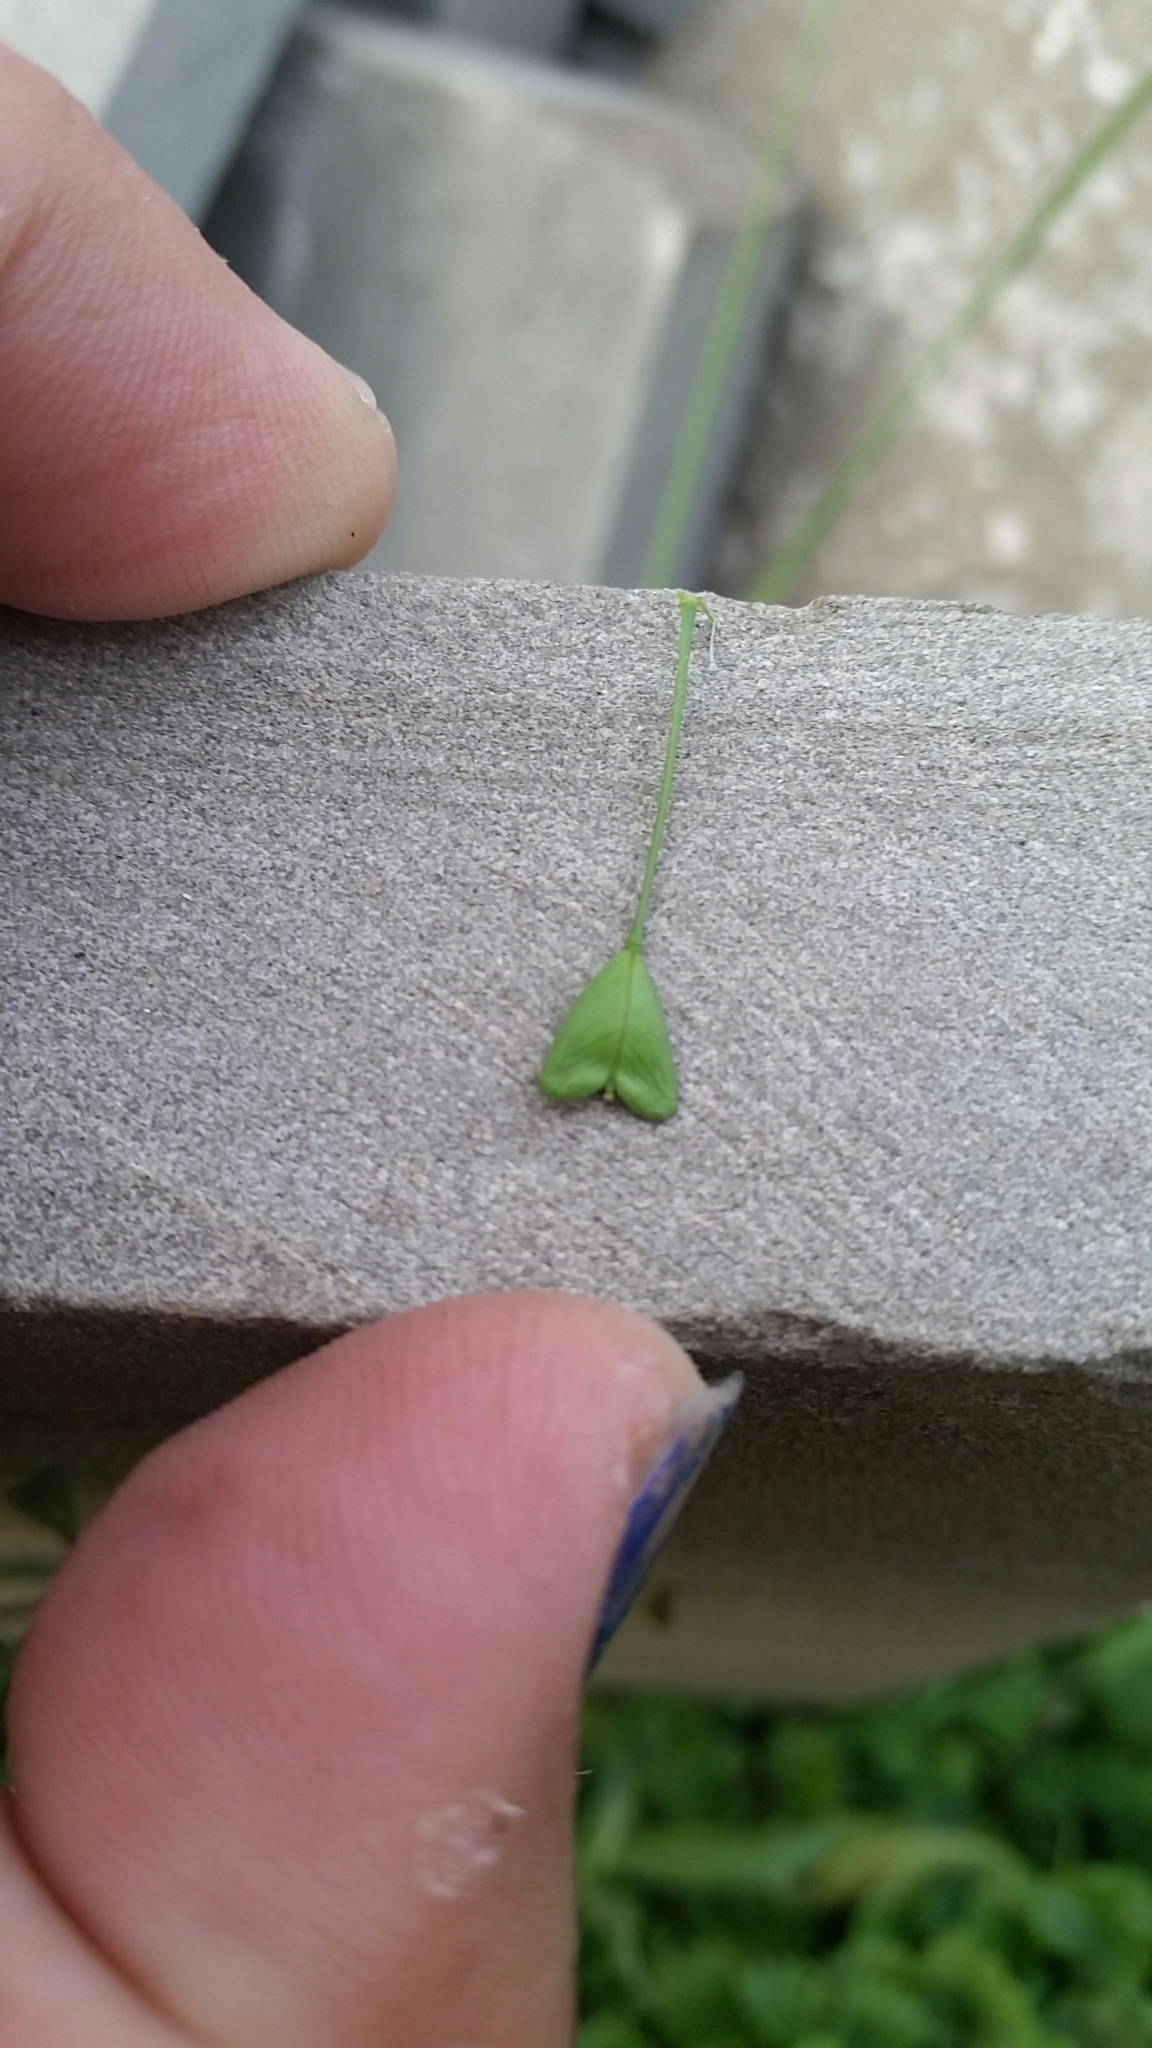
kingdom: Plantae
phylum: Tracheophyta
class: Magnoliopsida
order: Brassicales
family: Brassicaceae
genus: Capsella
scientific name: Capsella bursa-pastoris
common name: Shepherd's purse
